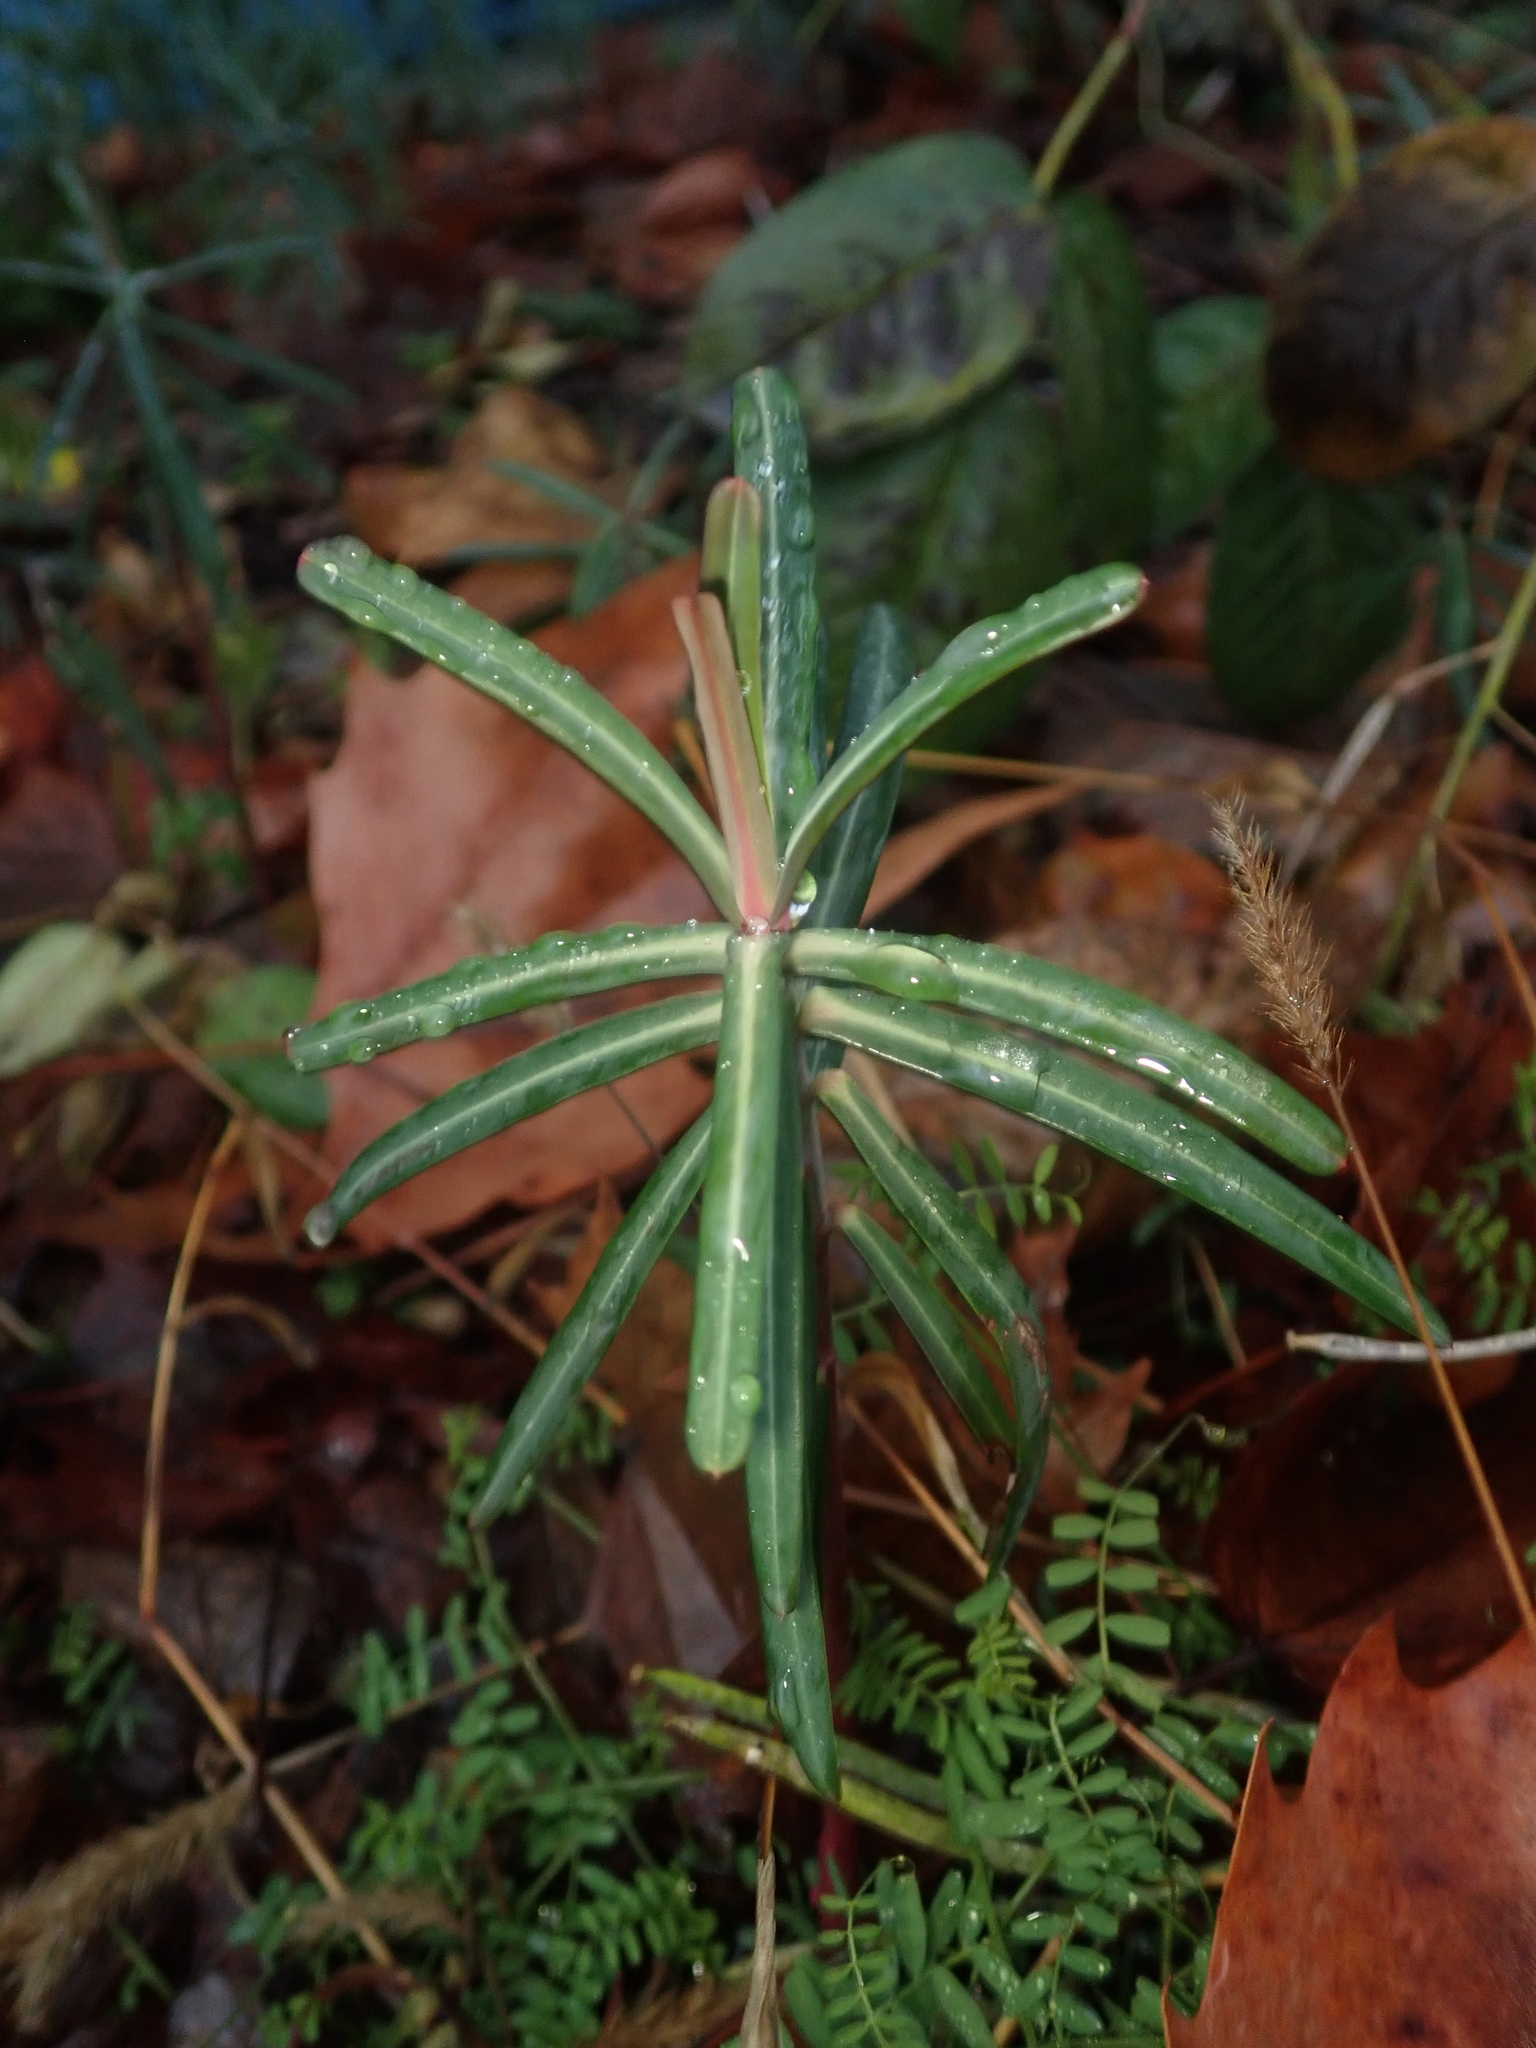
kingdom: Plantae
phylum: Tracheophyta
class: Magnoliopsida
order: Malpighiales
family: Euphorbiaceae
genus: Euphorbia
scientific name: Euphorbia lathyris
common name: Caper spurge
